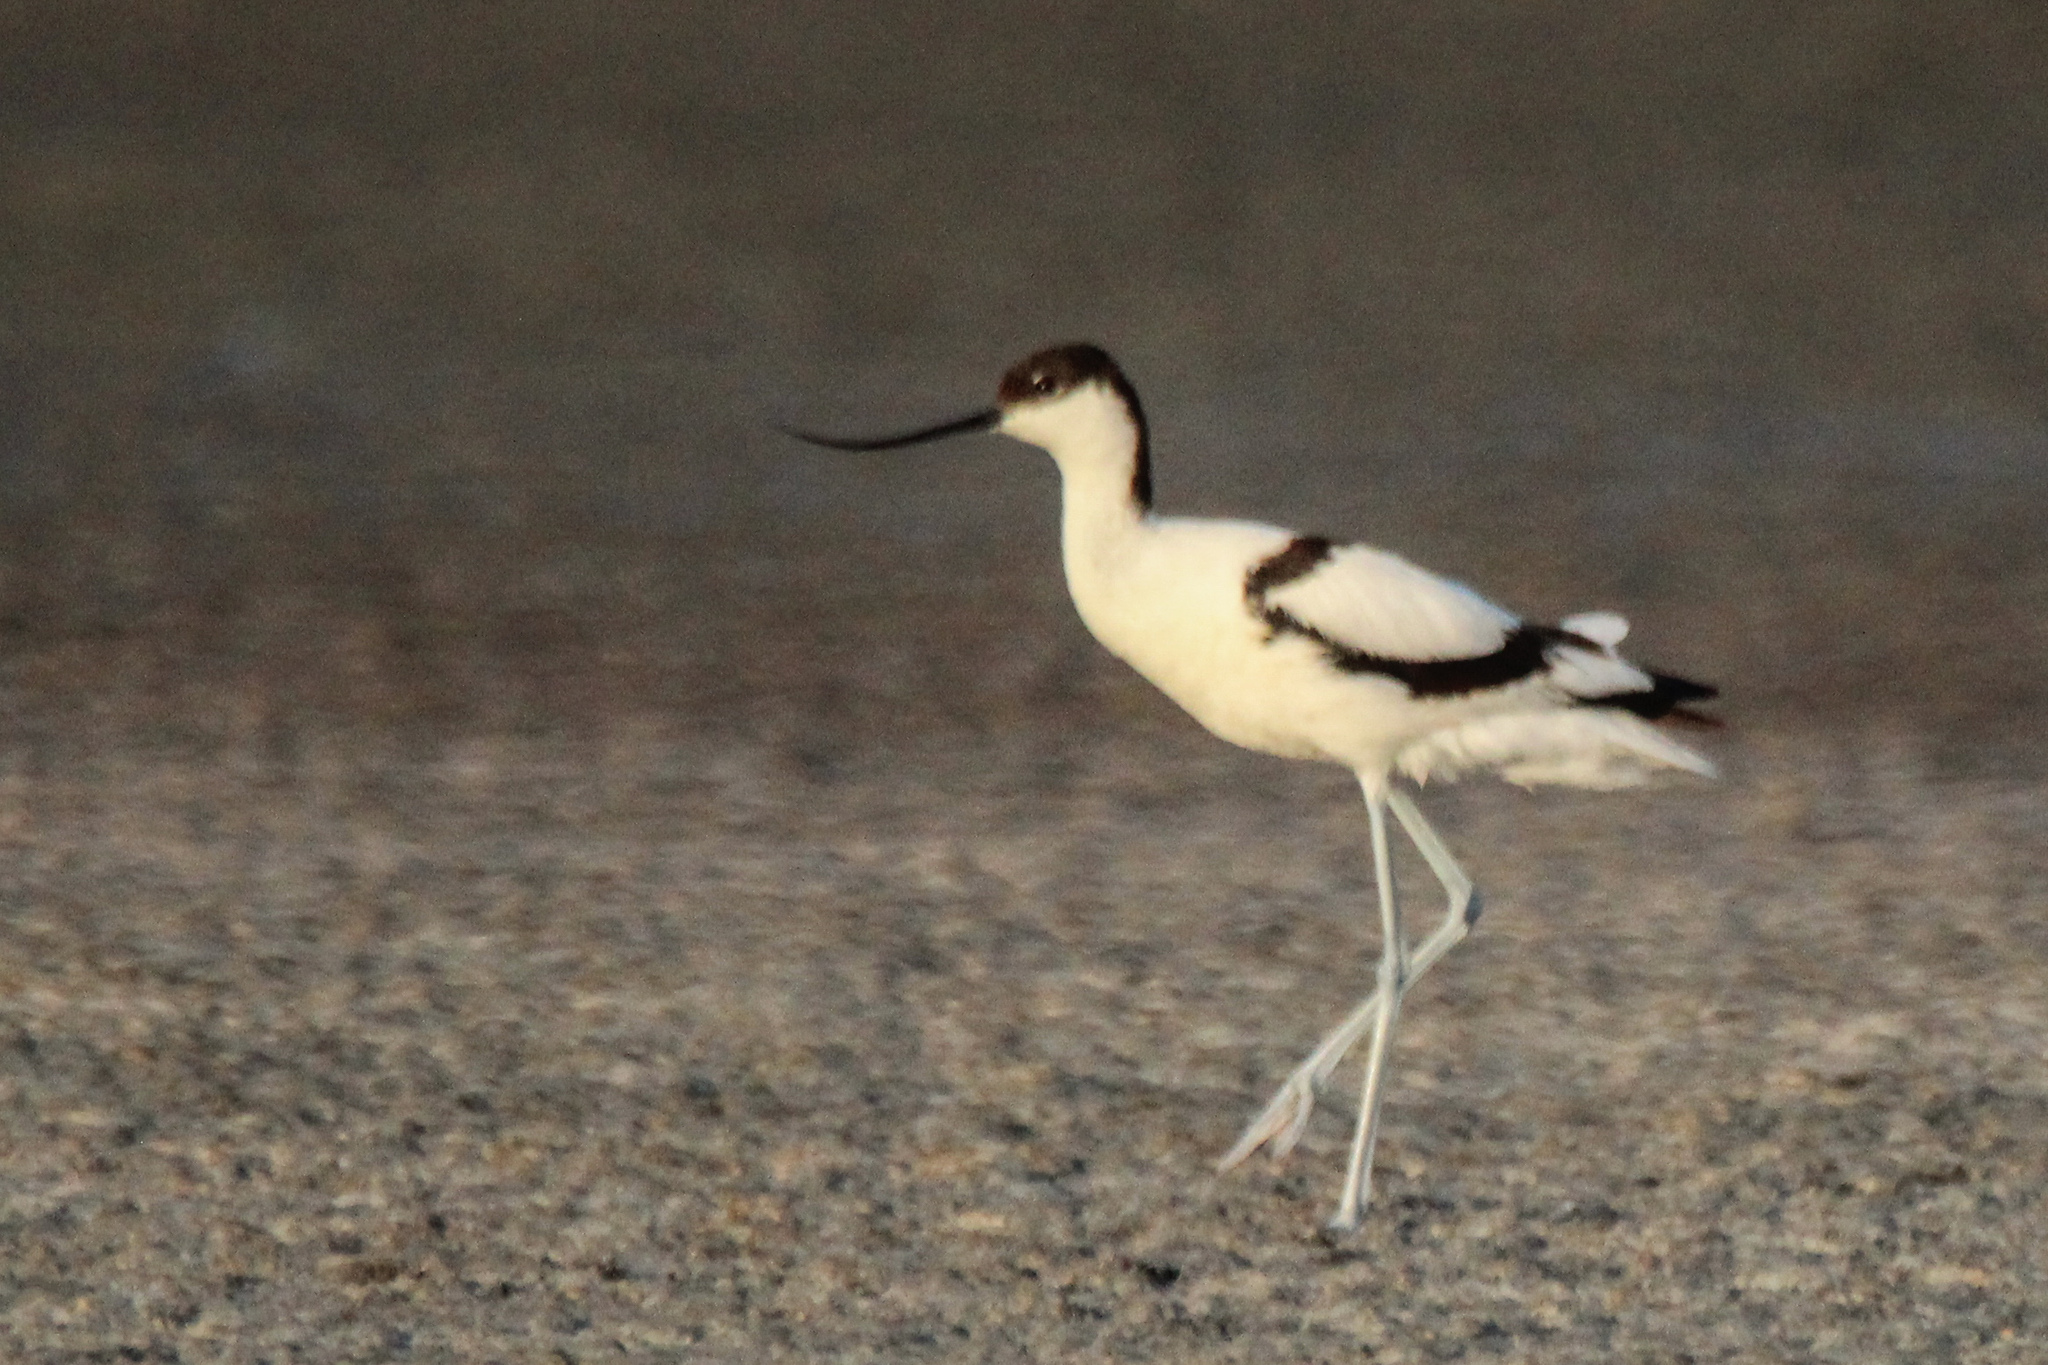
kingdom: Animalia
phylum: Chordata
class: Aves
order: Charadriiformes
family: Recurvirostridae
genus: Recurvirostra
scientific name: Recurvirostra avosetta
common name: Pied avocet
